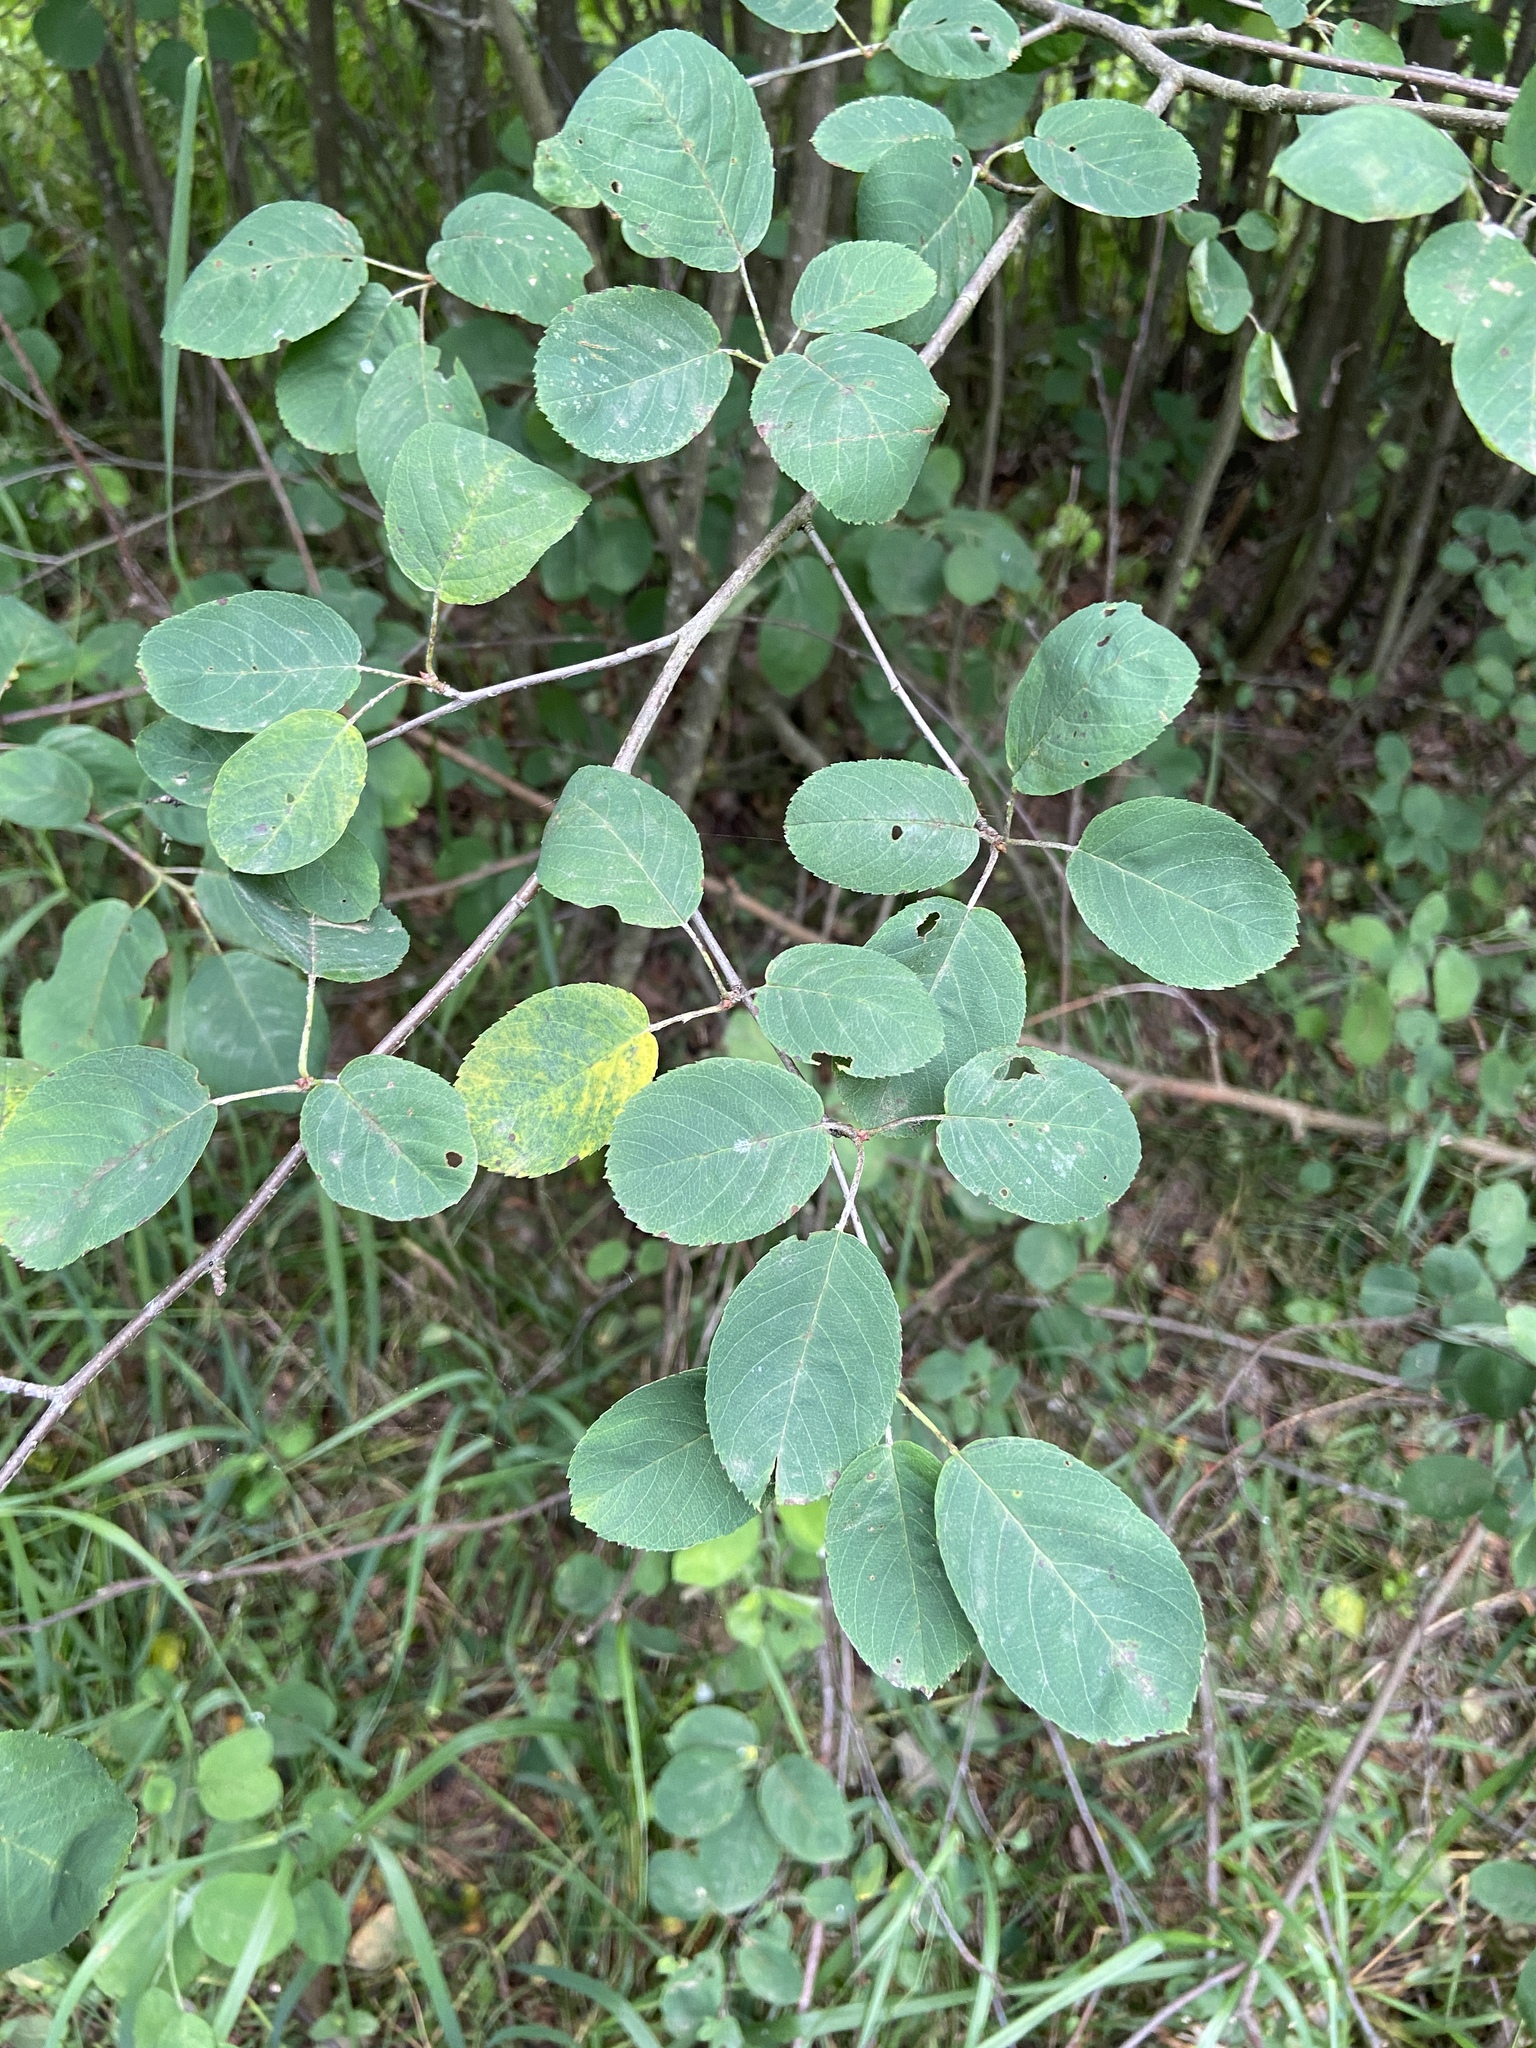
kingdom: Plantae
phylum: Tracheophyta
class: Magnoliopsida
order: Rosales
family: Rosaceae
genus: Amelanchier
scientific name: Amelanchier
